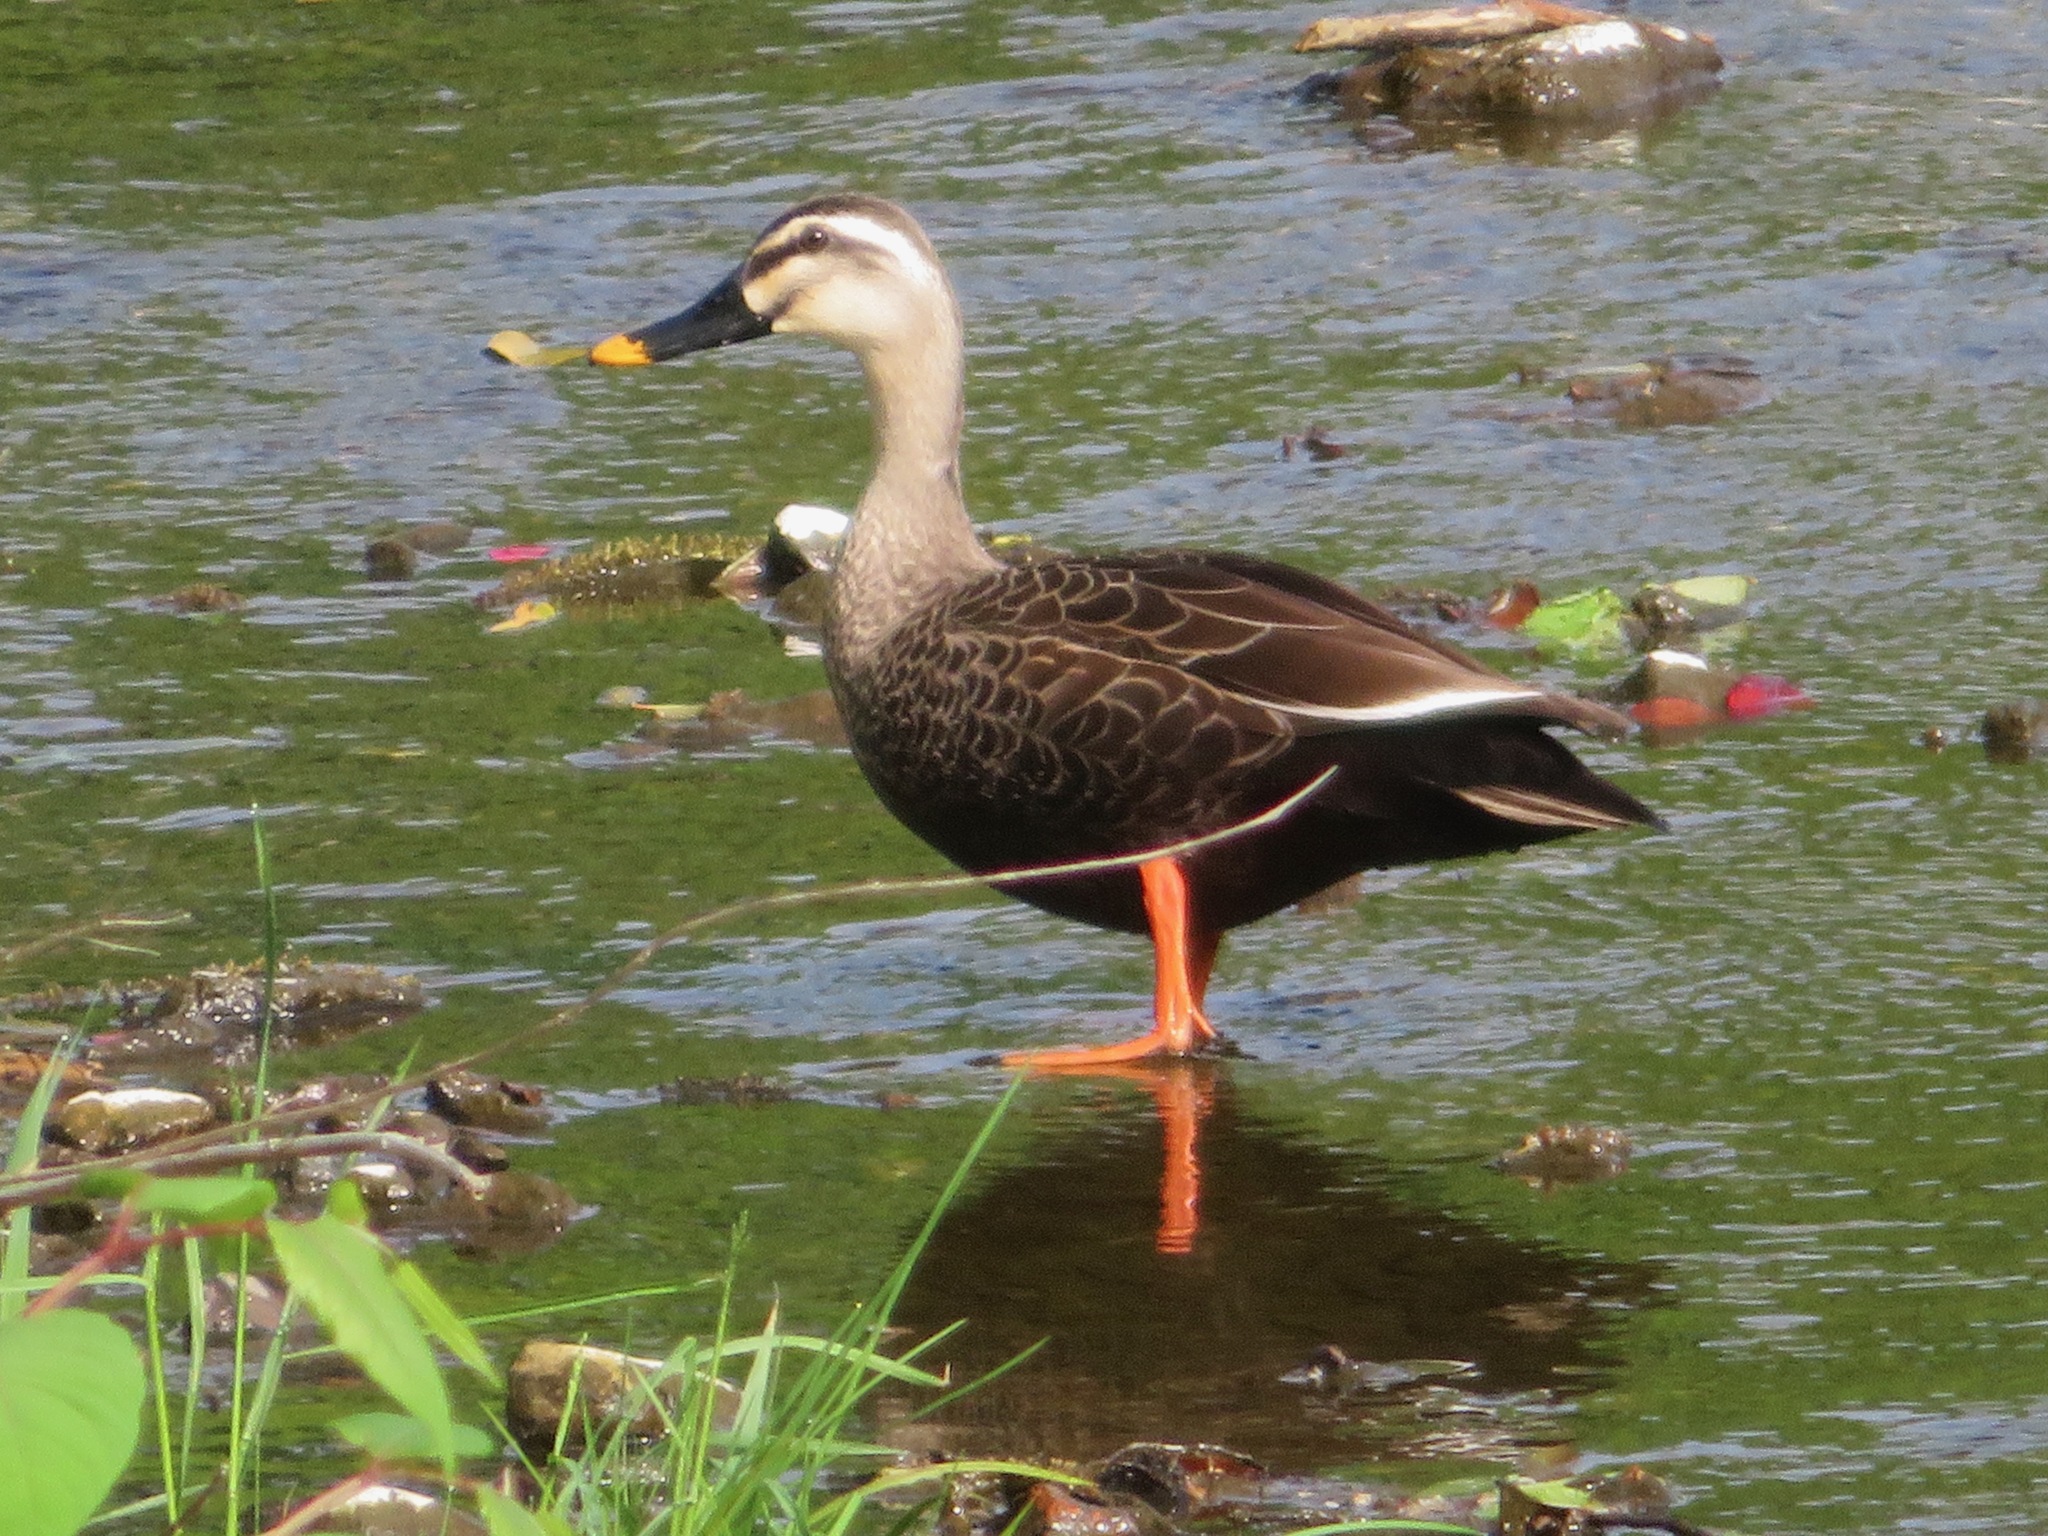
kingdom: Animalia
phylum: Chordata
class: Aves
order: Anseriformes
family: Anatidae
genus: Anas
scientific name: Anas zonorhyncha
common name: Eastern spot-billed duck
